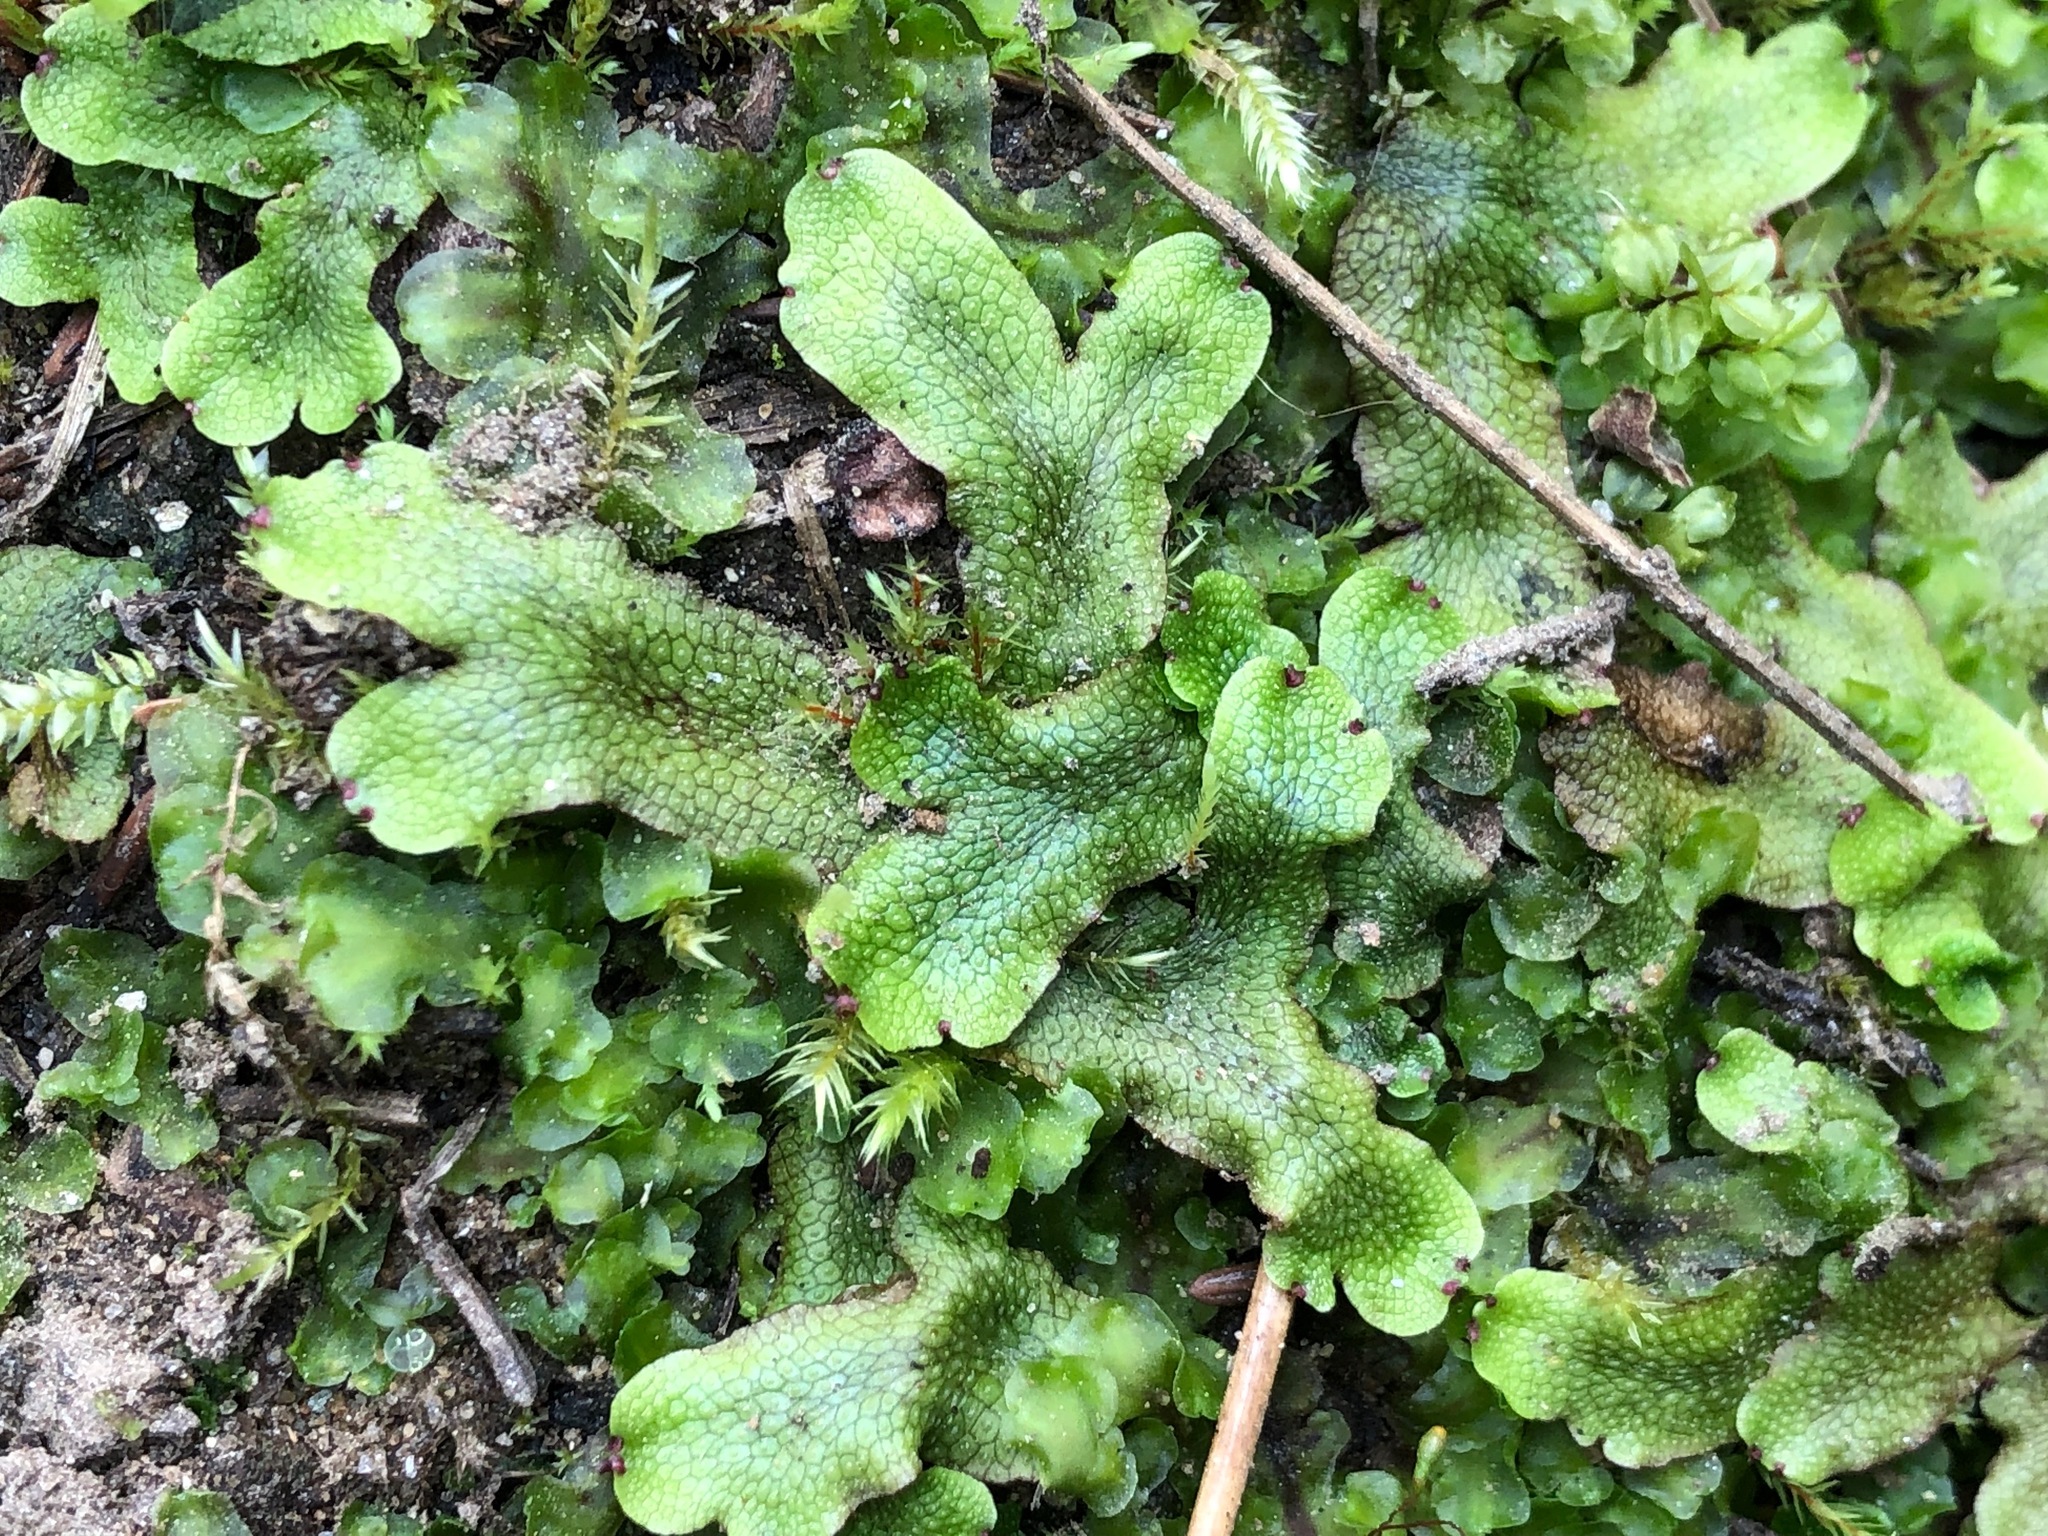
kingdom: Plantae
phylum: Marchantiophyta
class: Marchantiopsida
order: Marchantiales
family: Conocephalaceae
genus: Conocephalum
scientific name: Conocephalum salebrosum
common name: Cat-tongue liverwort
